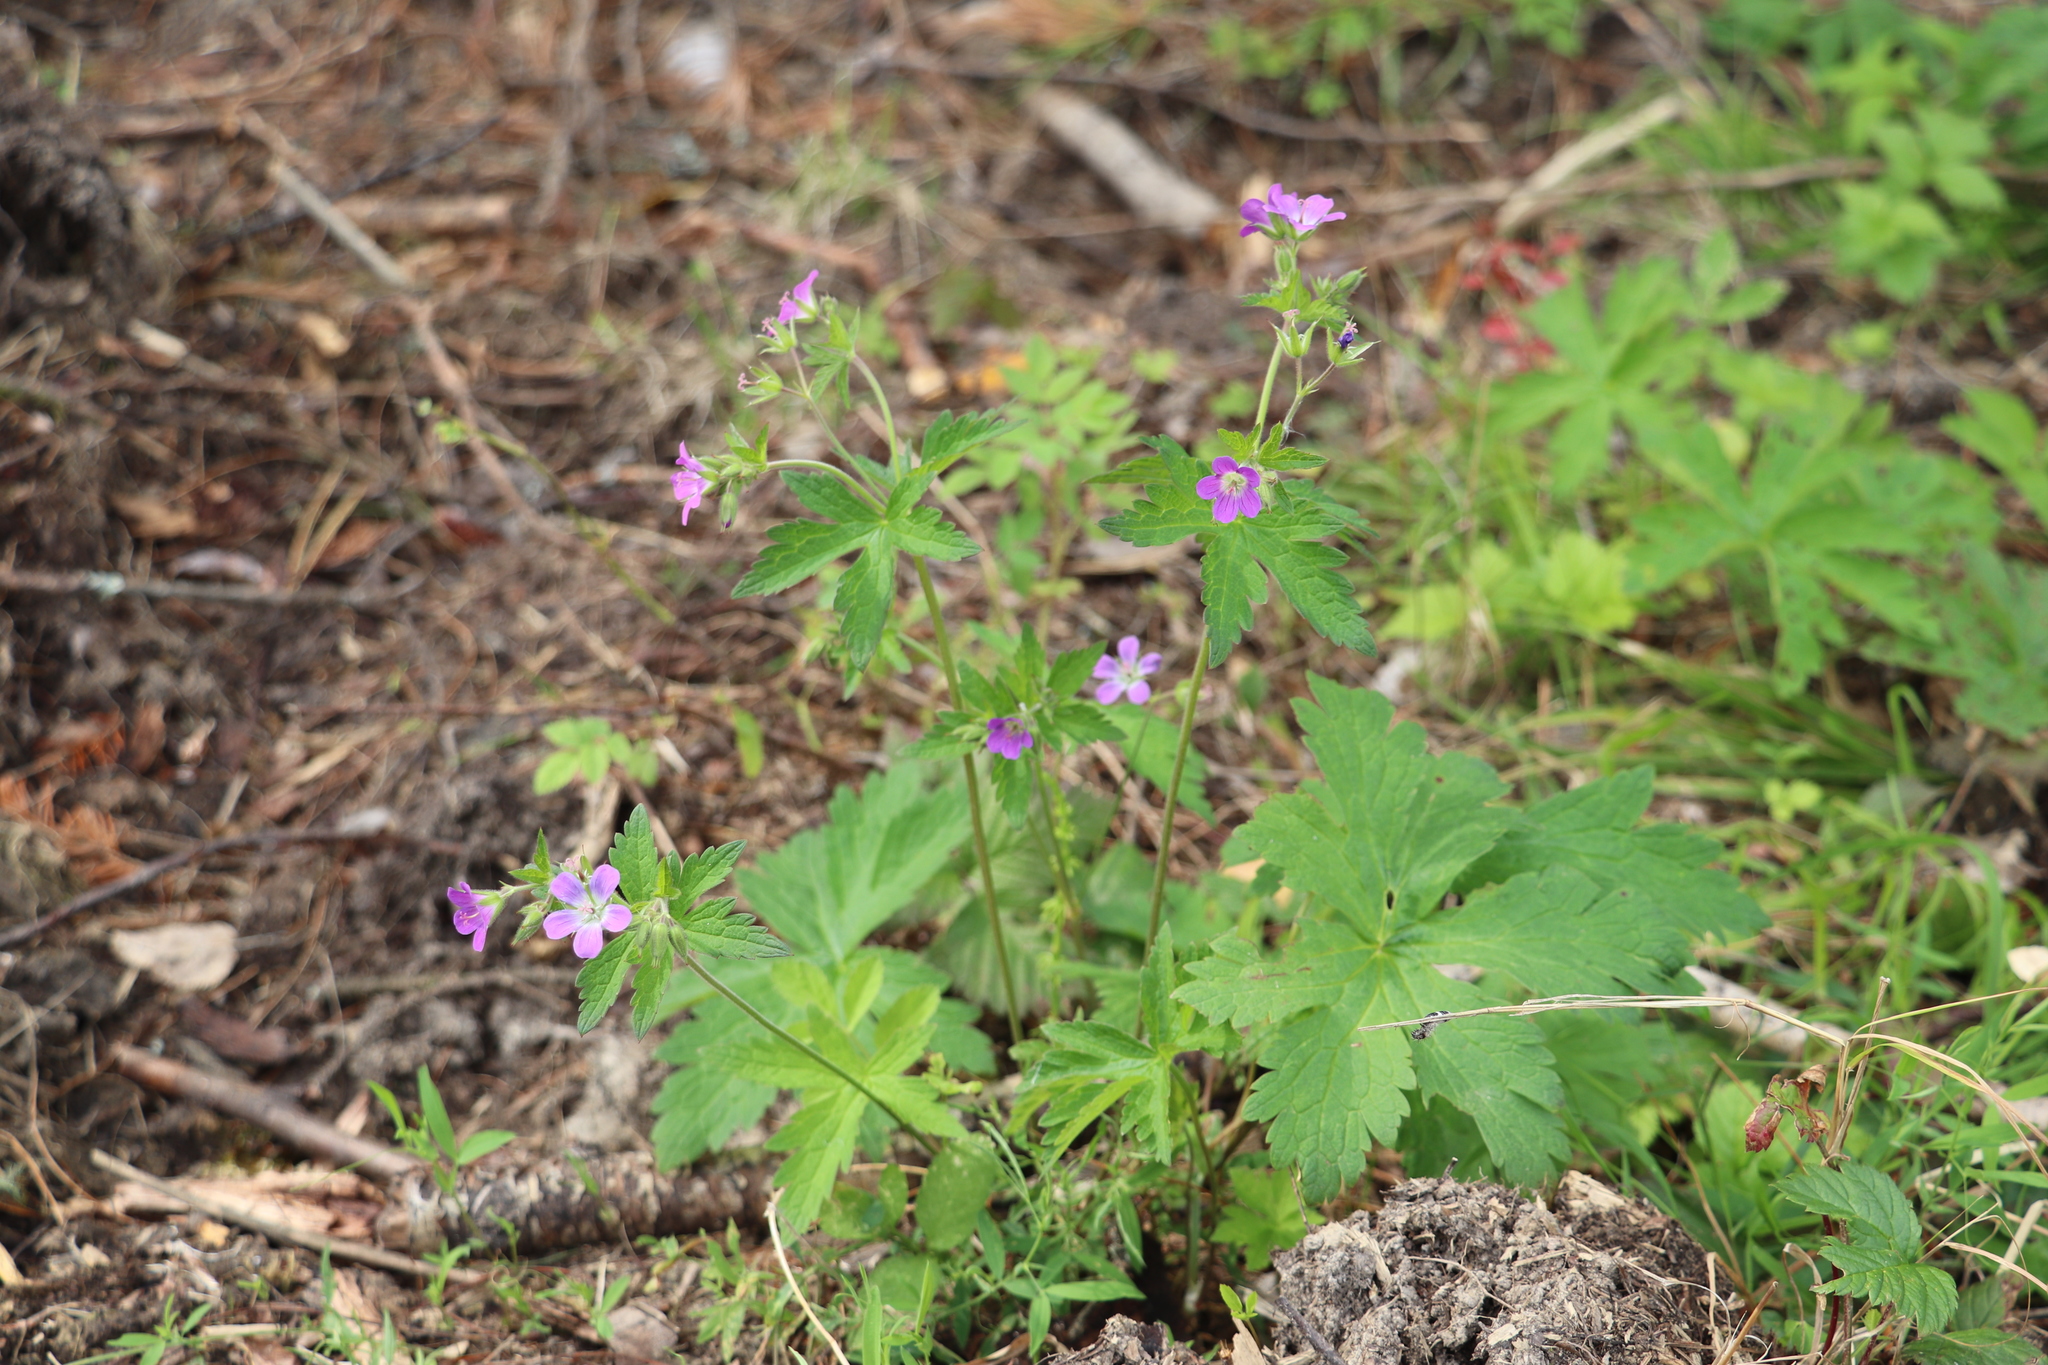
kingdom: Plantae
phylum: Tracheophyta
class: Magnoliopsida
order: Geraniales
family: Geraniaceae
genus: Geranium
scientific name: Geranium sylvaticum
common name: Wood crane's-bill
